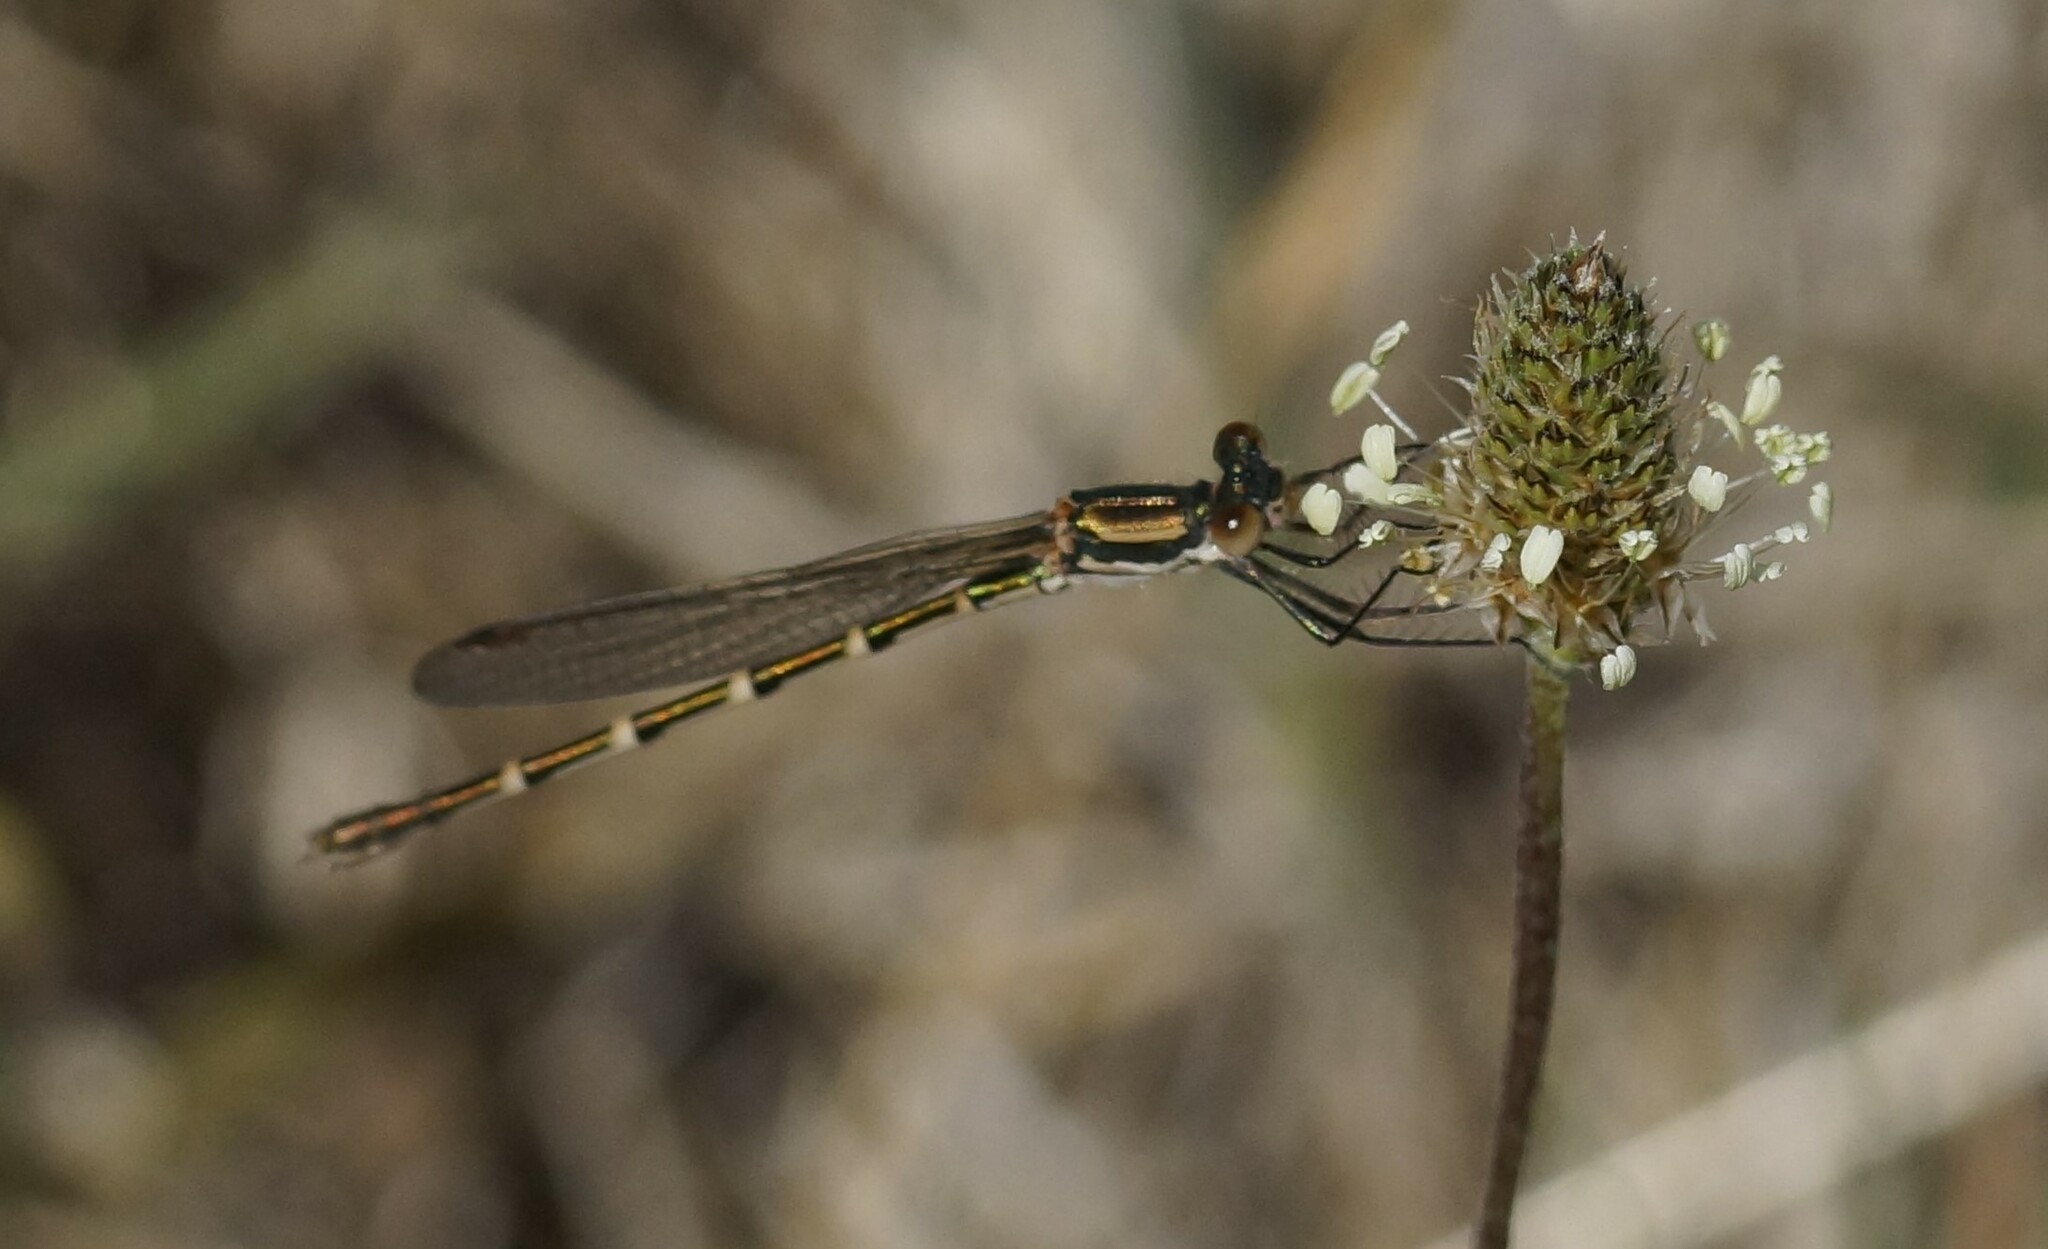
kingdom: Animalia
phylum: Arthropoda
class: Insecta
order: Odonata
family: Lestidae
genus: Austrolestes
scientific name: Austrolestes annulosus
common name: Blue ringtail
